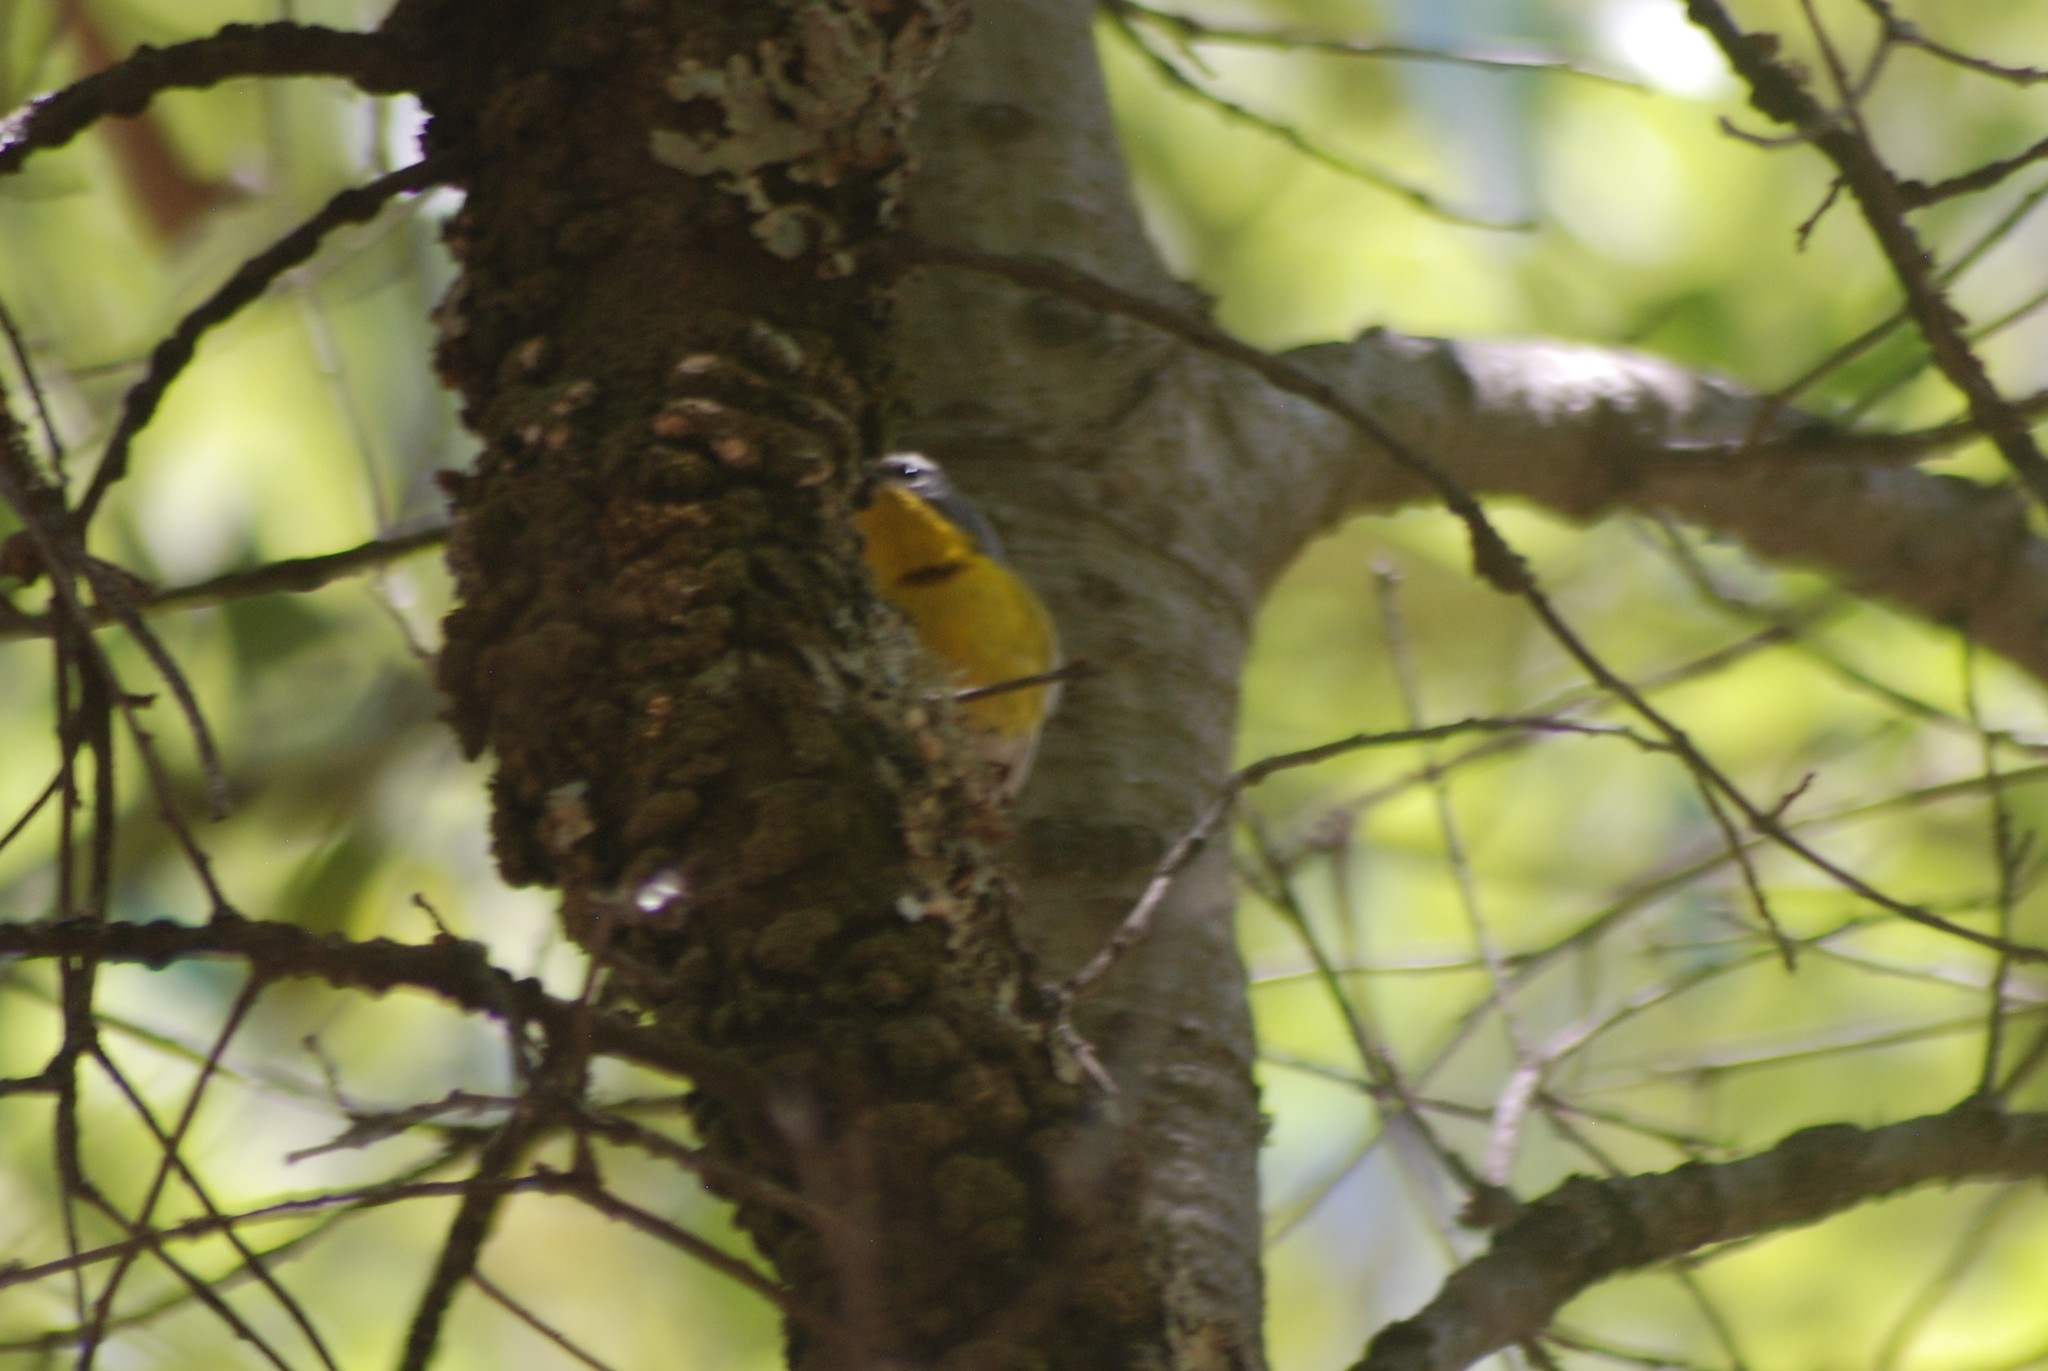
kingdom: Animalia
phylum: Chordata
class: Aves
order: Passeriformes
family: Parulidae
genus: Oreothlypis
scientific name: Oreothlypis superciliosa
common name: Crescent-chested warbler
